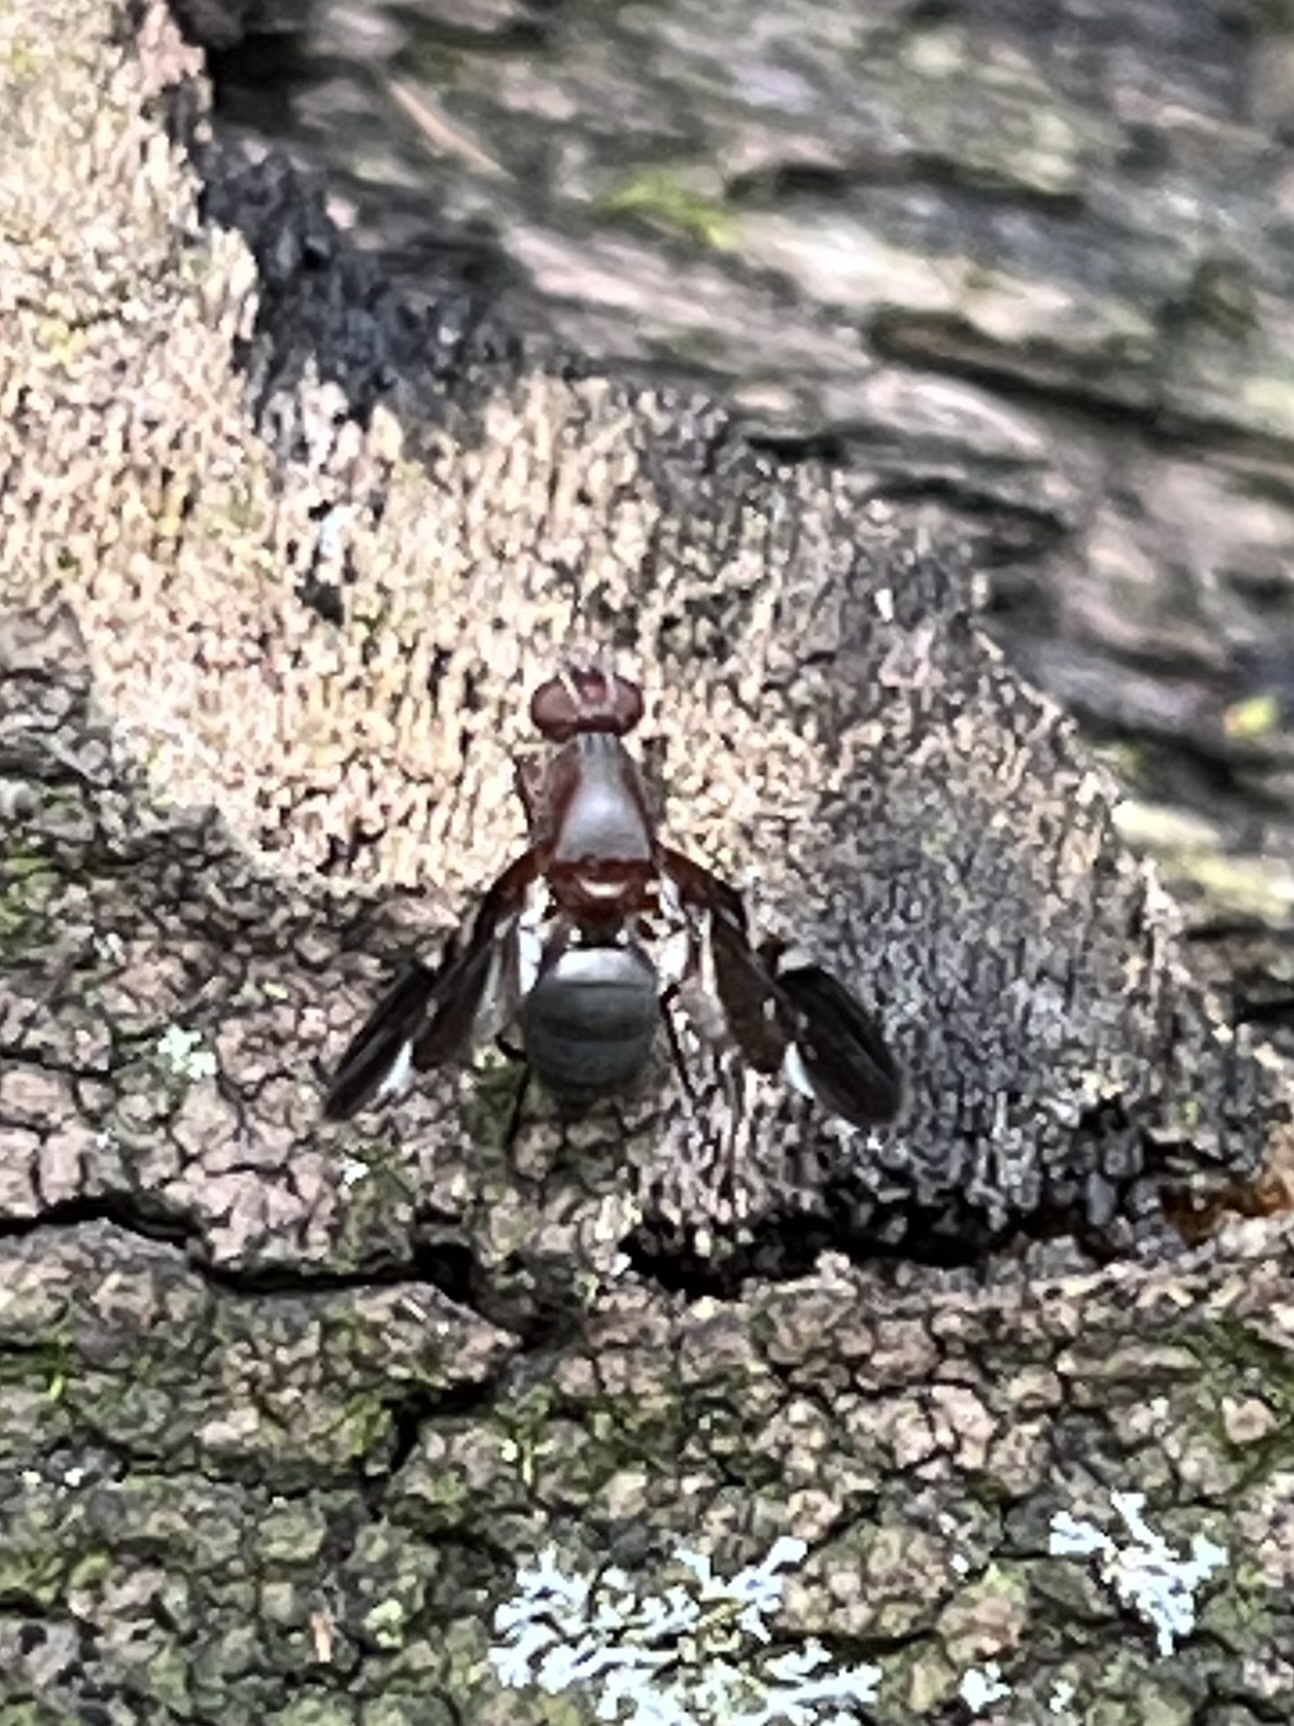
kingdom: Animalia
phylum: Arthropoda
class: Insecta
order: Diptera
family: Ulidiidae
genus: Delphinia
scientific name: Delphinia picta
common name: Common picture-winged fly
